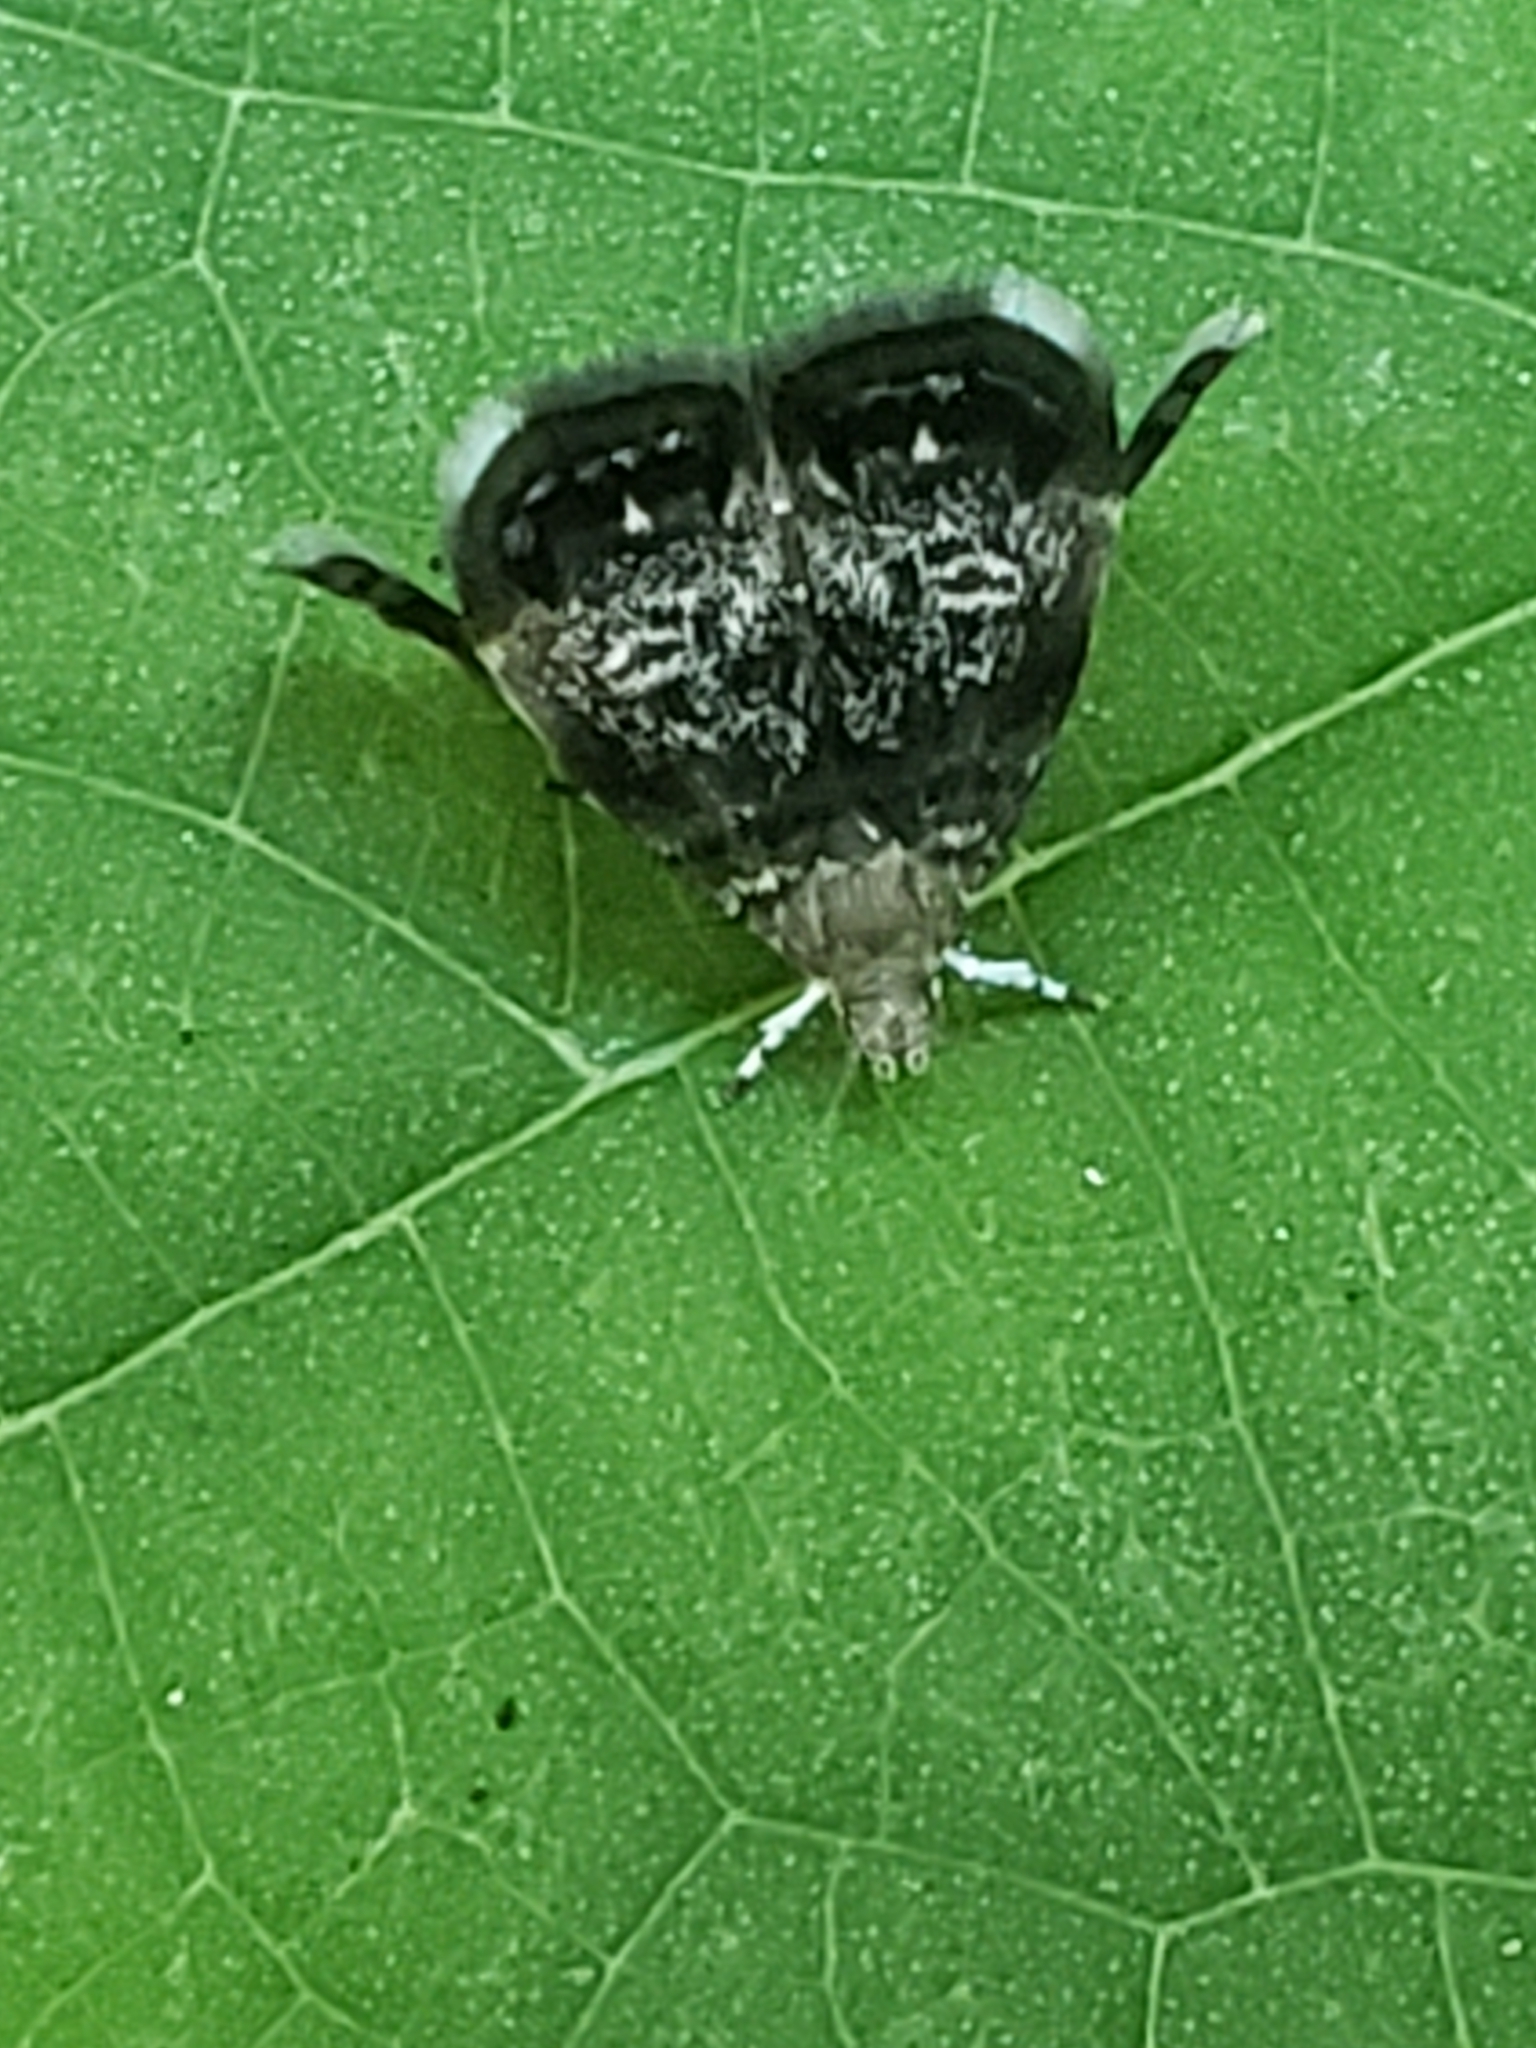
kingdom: Animalia
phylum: Arthropoda
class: Insecta
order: Lepidoptera
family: Choreutidae
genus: Brenthia
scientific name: Brenthia pavonacella
